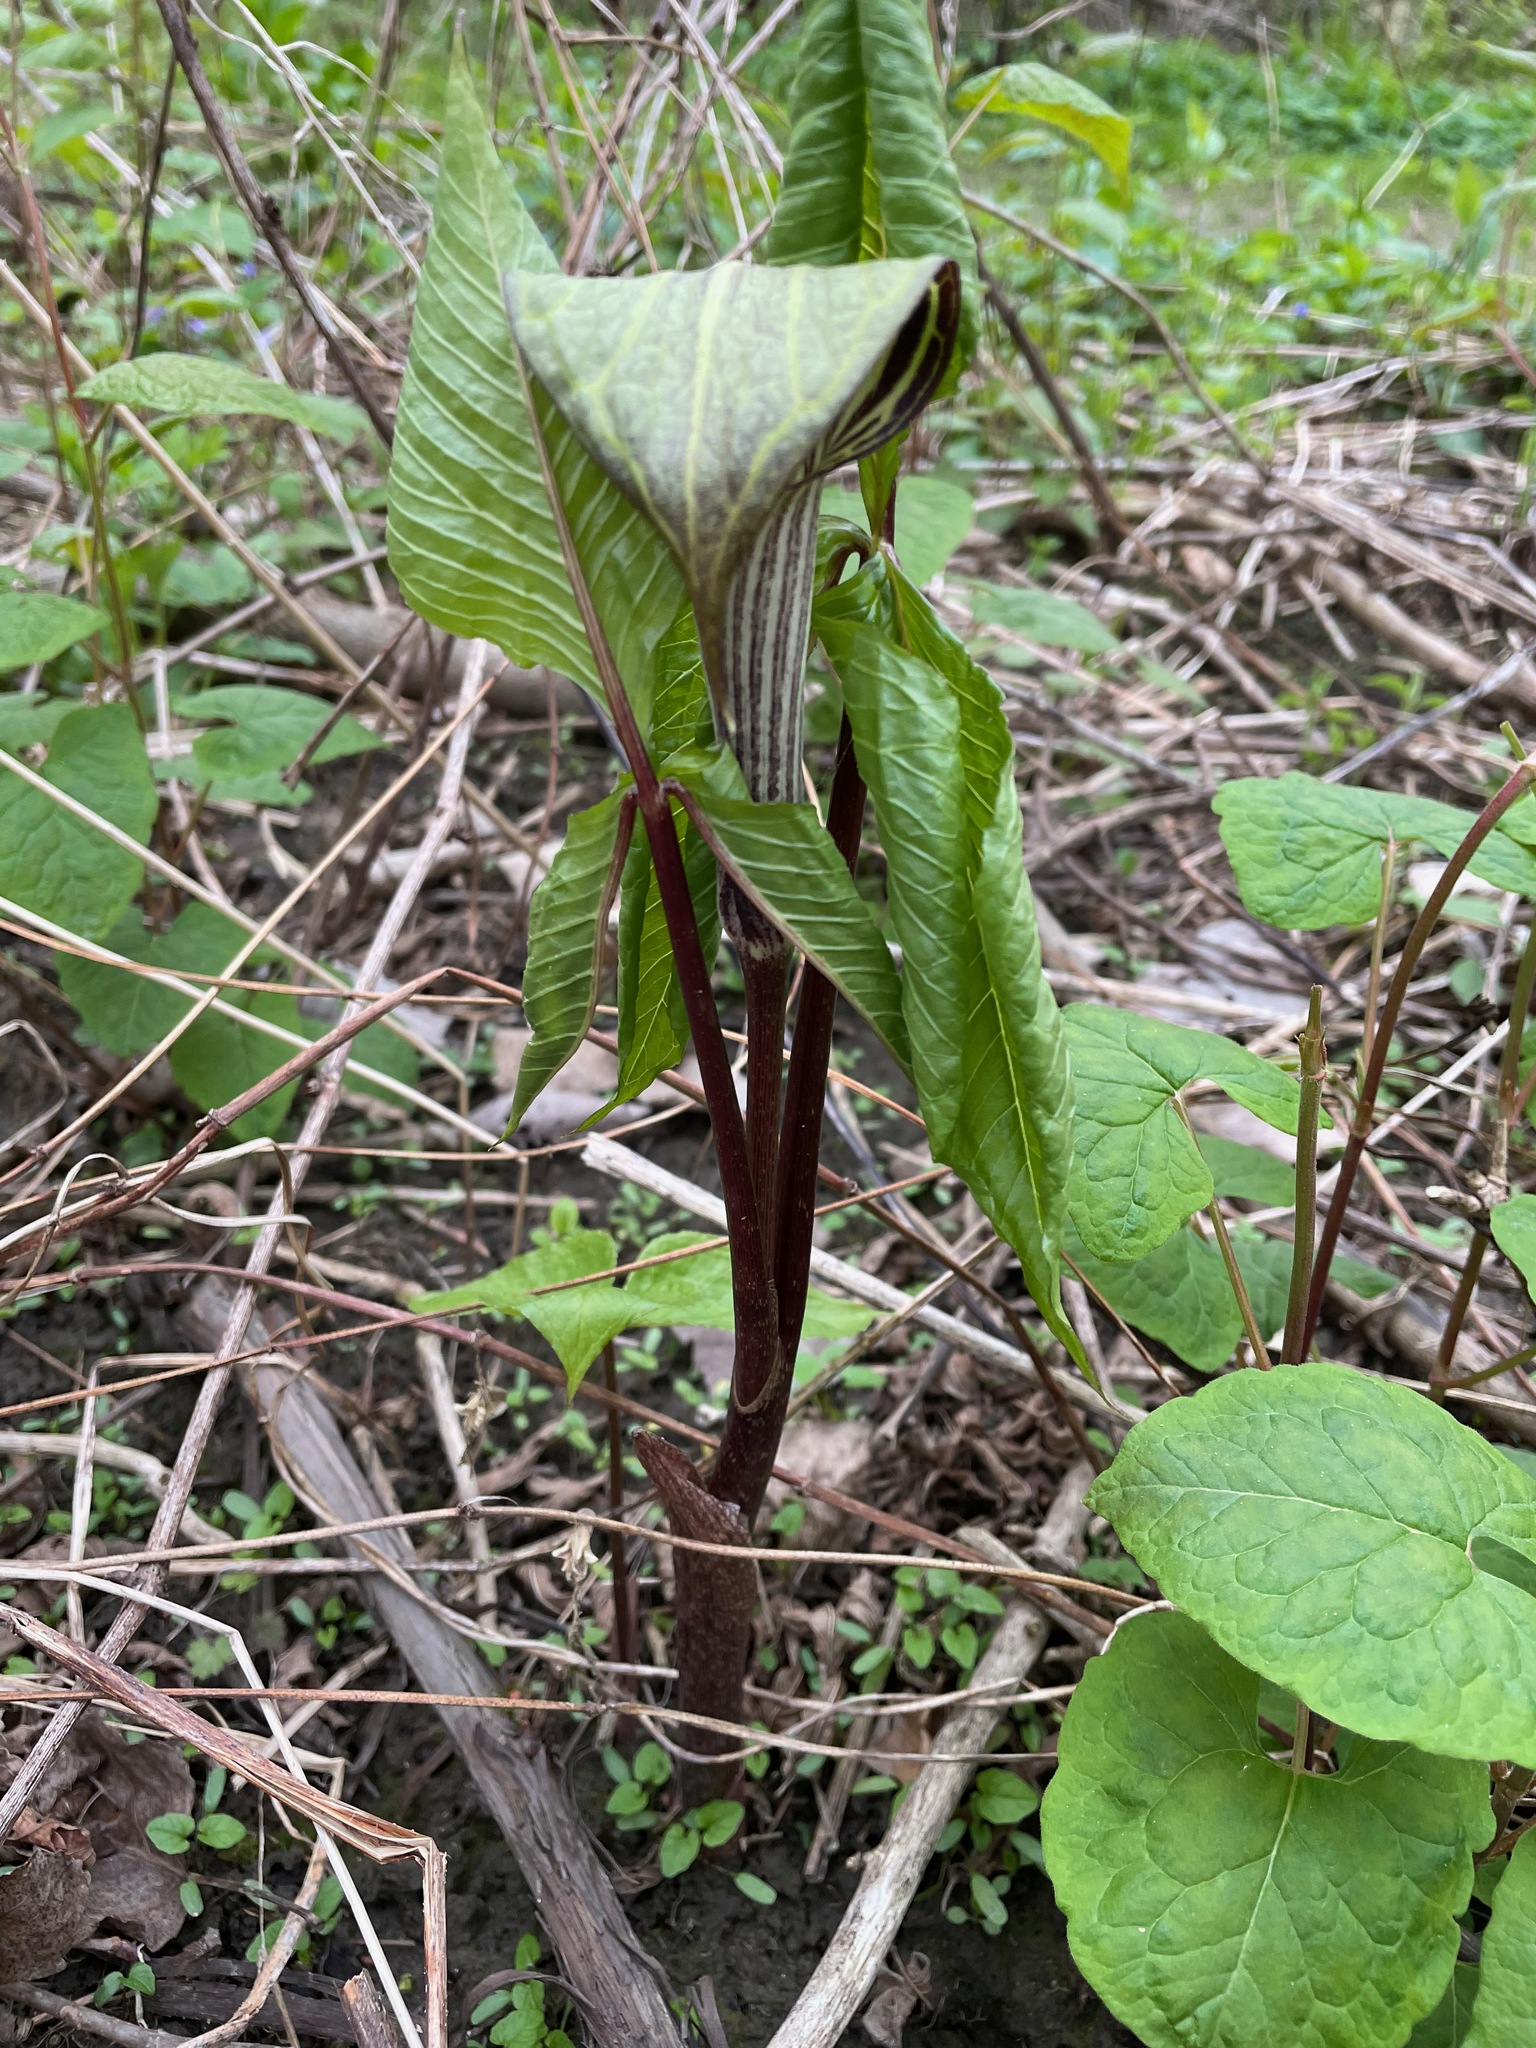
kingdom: Plantae
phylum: Tracheophyta
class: Liliopsida
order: Alismatales
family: Araceae
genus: Arisaema
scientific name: Arisaema triphyllum
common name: Jack-in-the-pulpit
